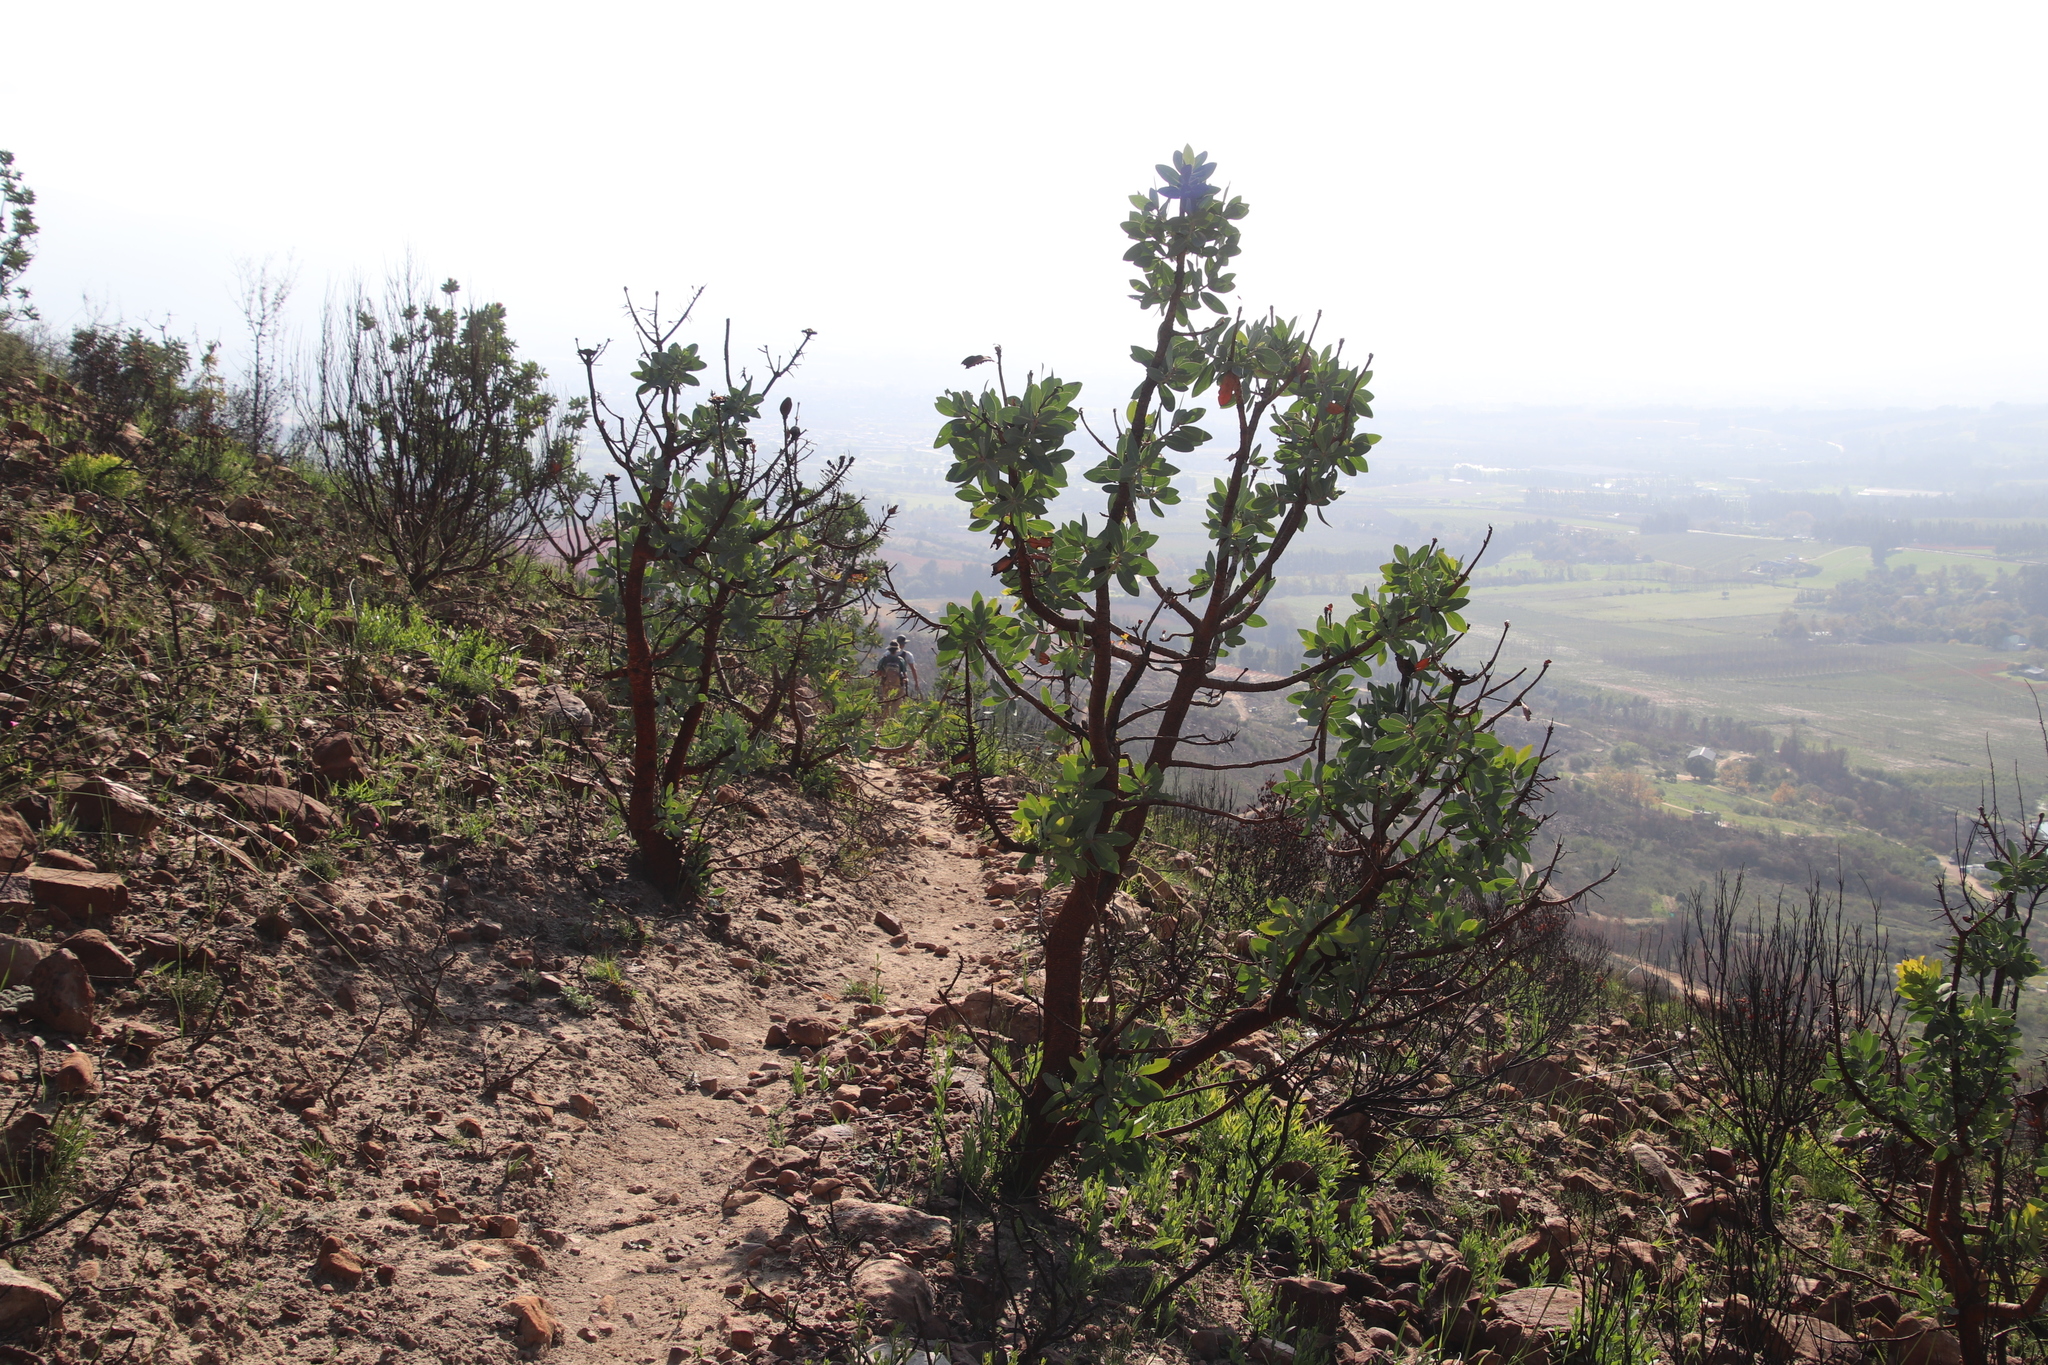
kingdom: Plantae
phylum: Tracheophyta
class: Magnoliopsida
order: Proteales
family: Proteaceae
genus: Protea
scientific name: Protea nitida
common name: Tree protea
